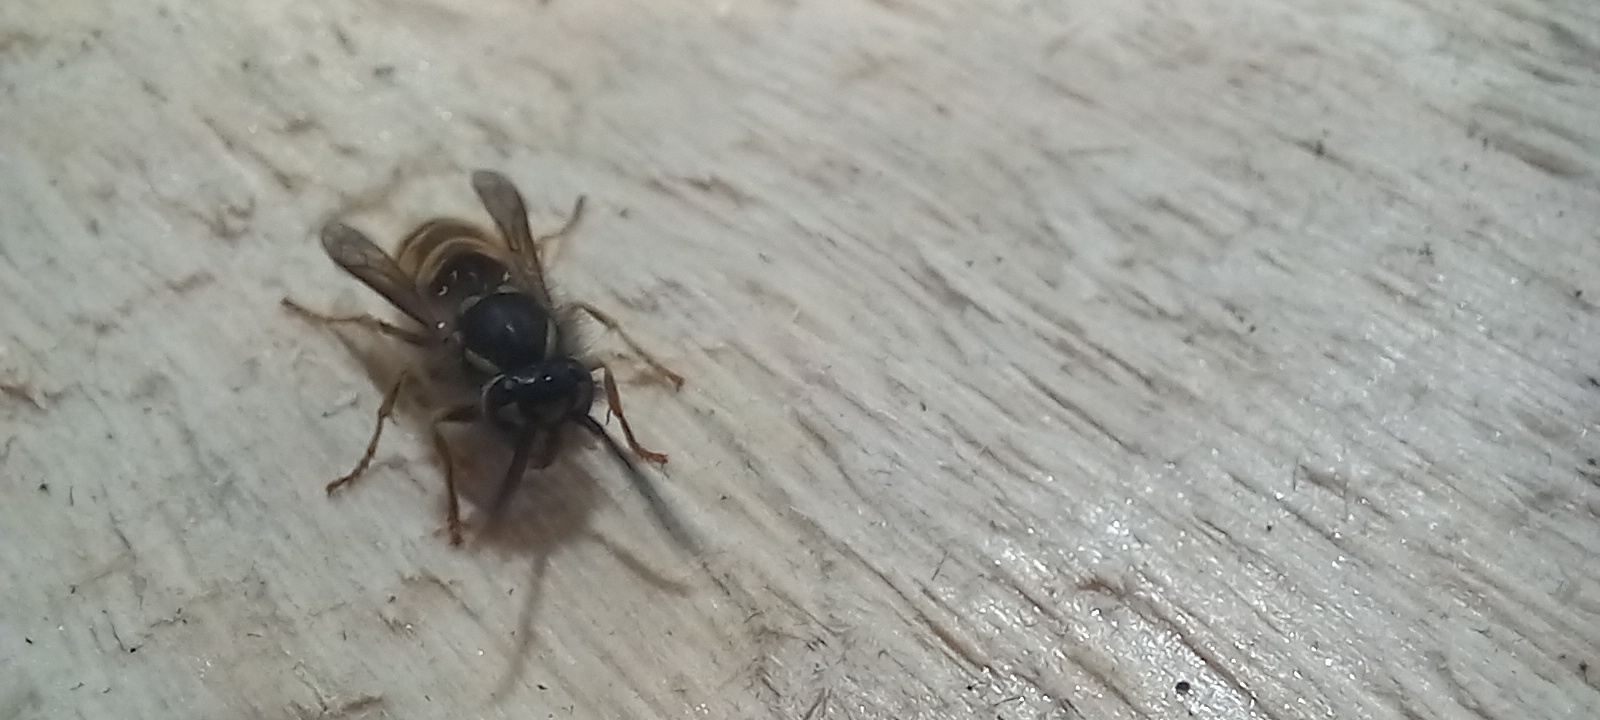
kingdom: Animalia
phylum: Arthropoda
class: Insecta
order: Hymenoptera
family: Vespidae
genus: Vespula
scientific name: Vespula vulgaris
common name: Common wasp
